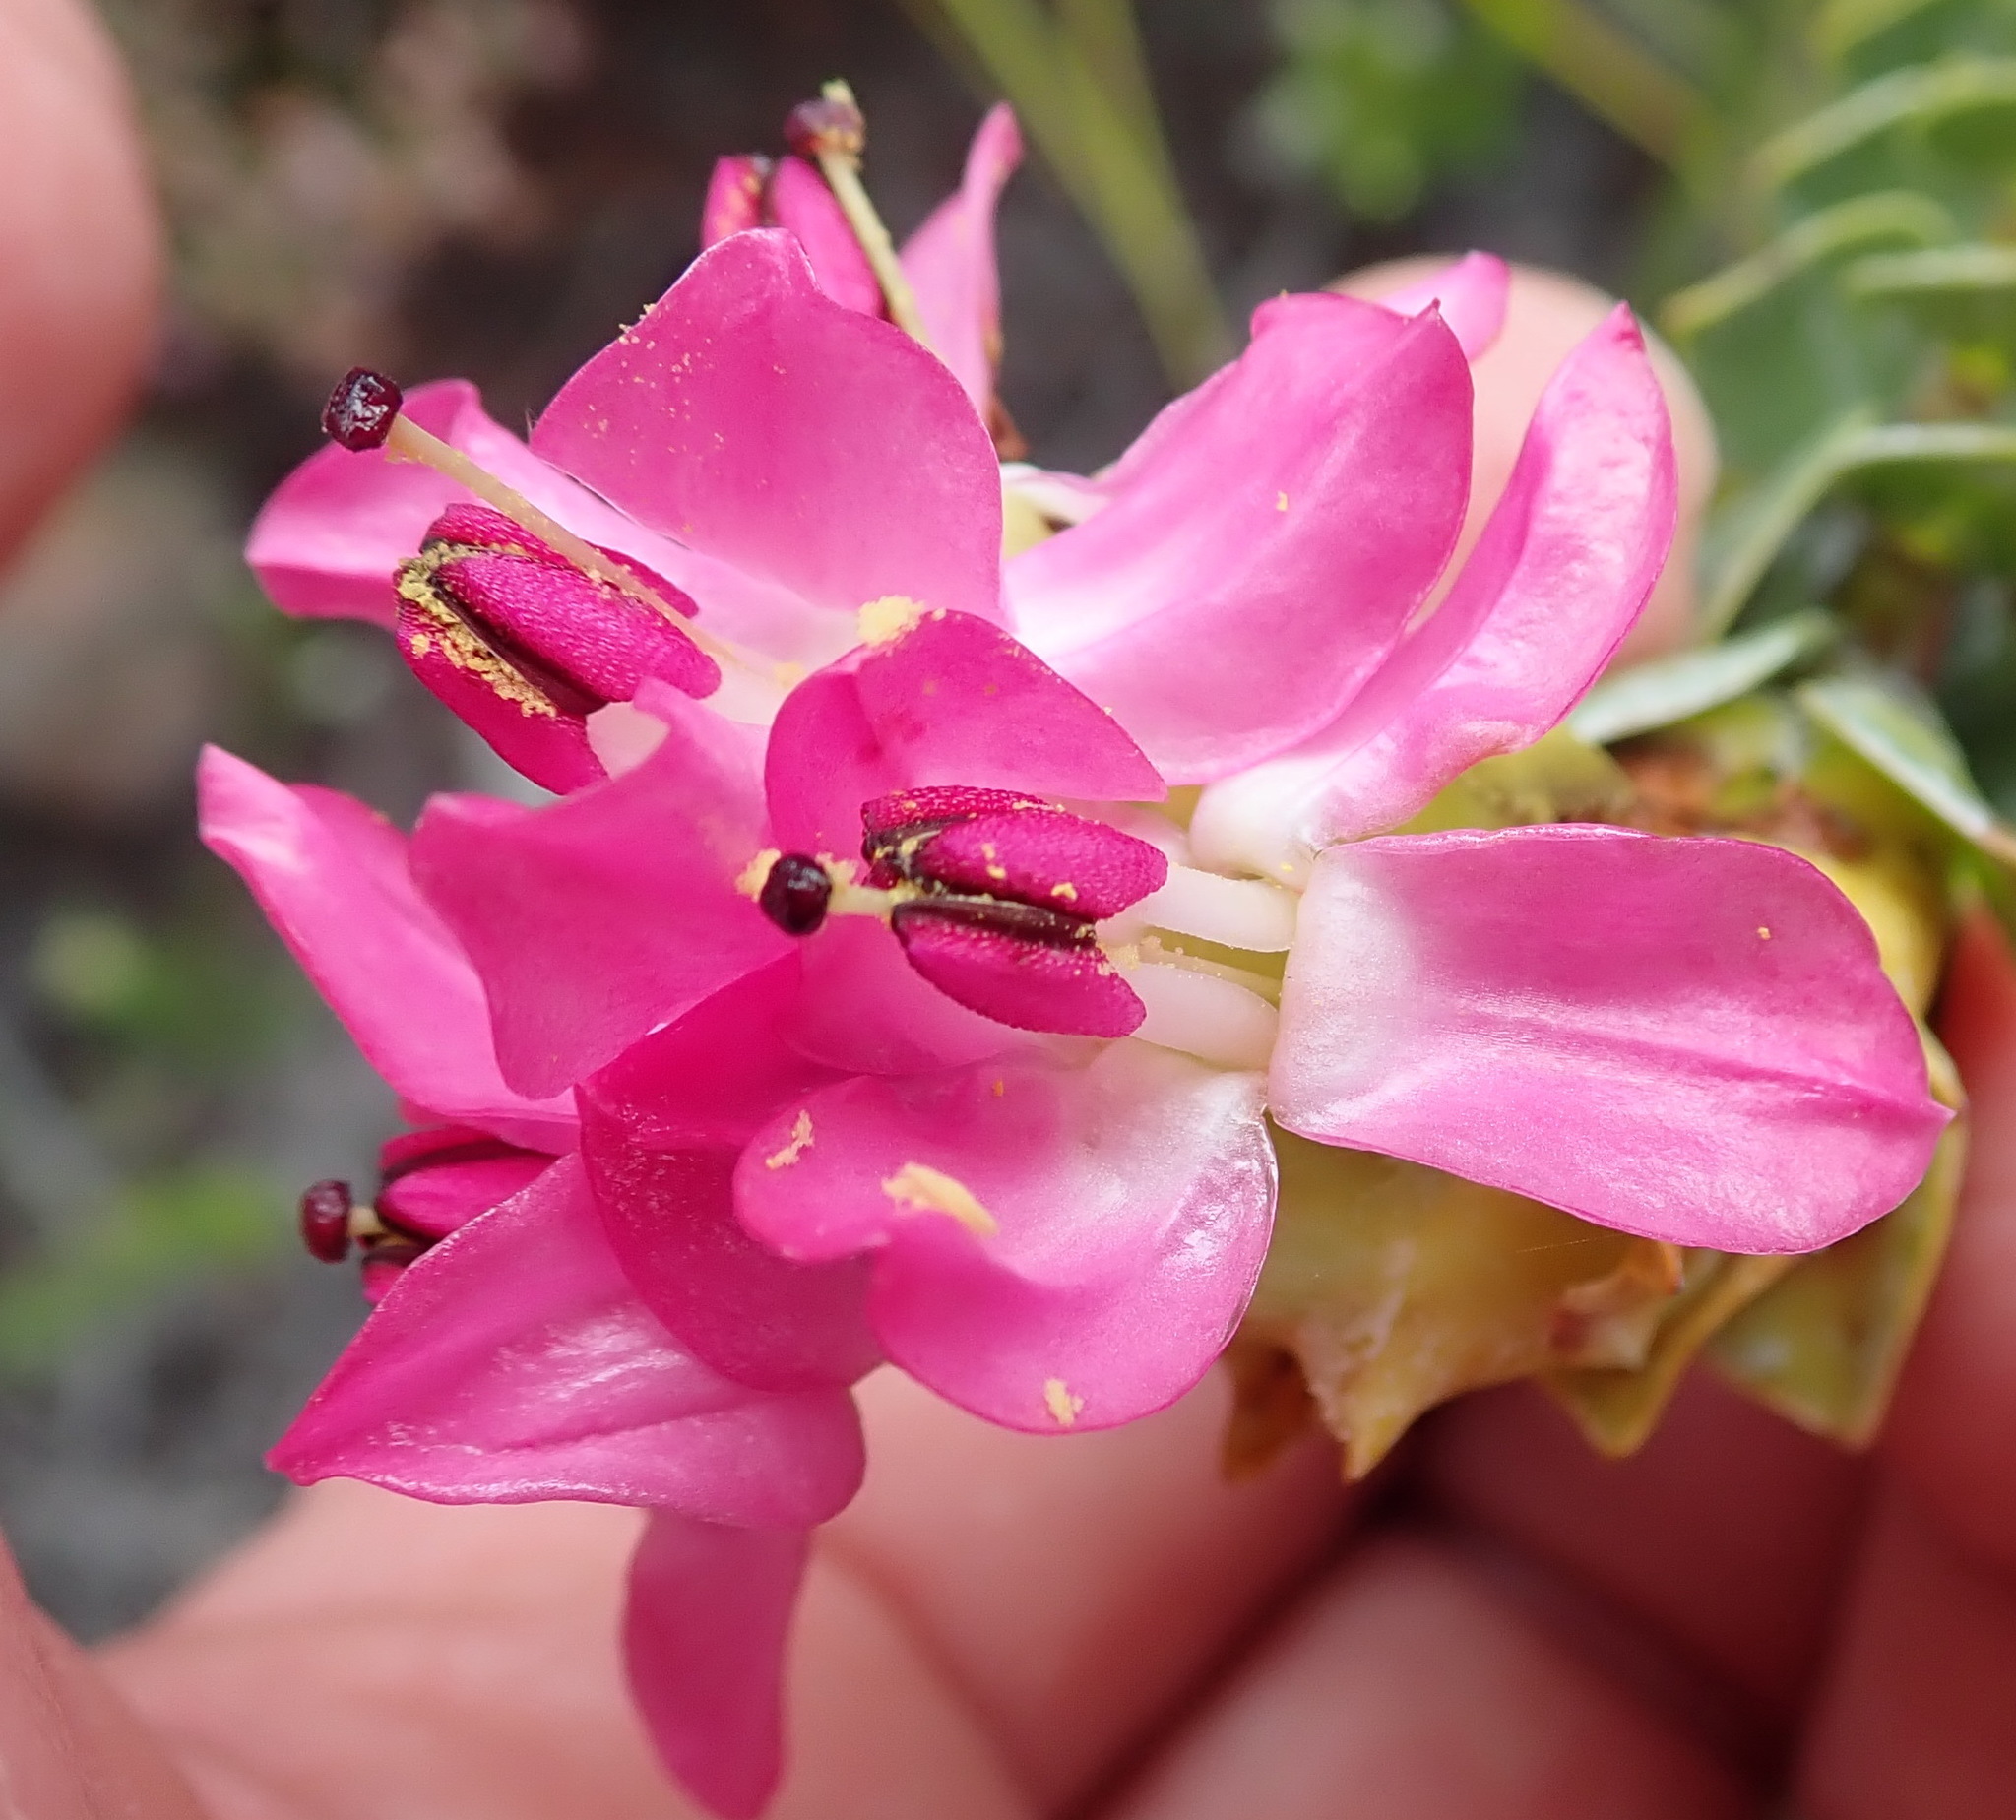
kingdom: Plantae
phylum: Tracheophyta
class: Magnoliopsida
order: Myrtales
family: Penaeaceae
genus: Saltera
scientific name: Saltera sarcocolla
